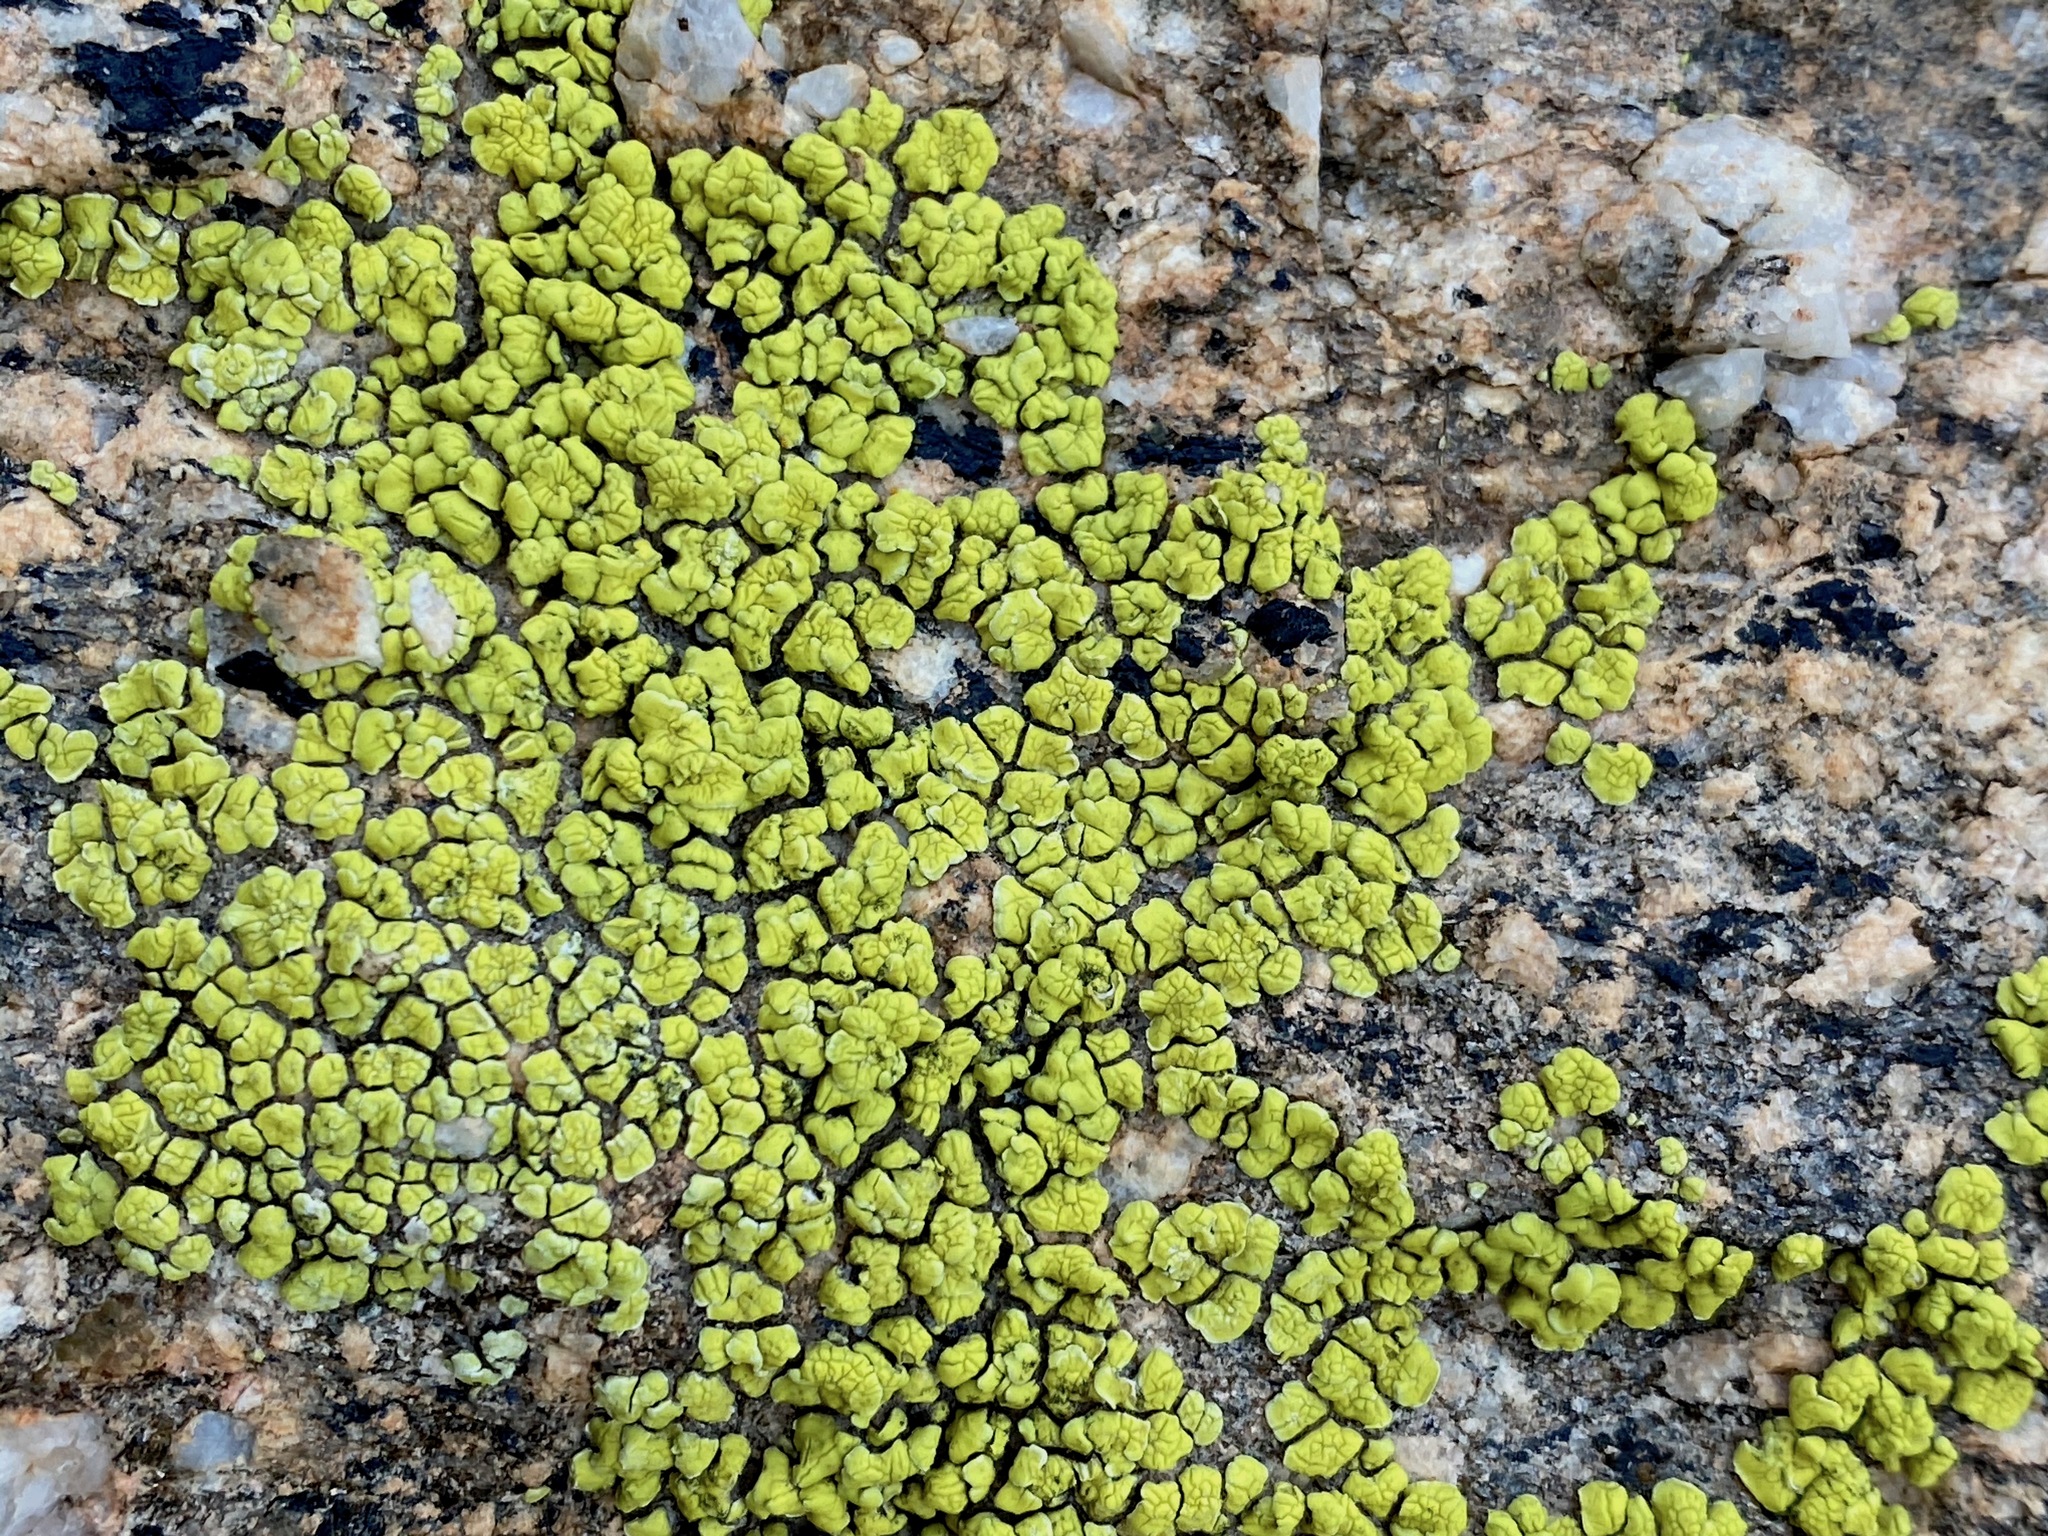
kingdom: Fungi
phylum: Ascomycota
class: Lecanoromycetes
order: Acarosporales
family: Acarosporaceae
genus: Acarospora
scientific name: Acarospora socialis
